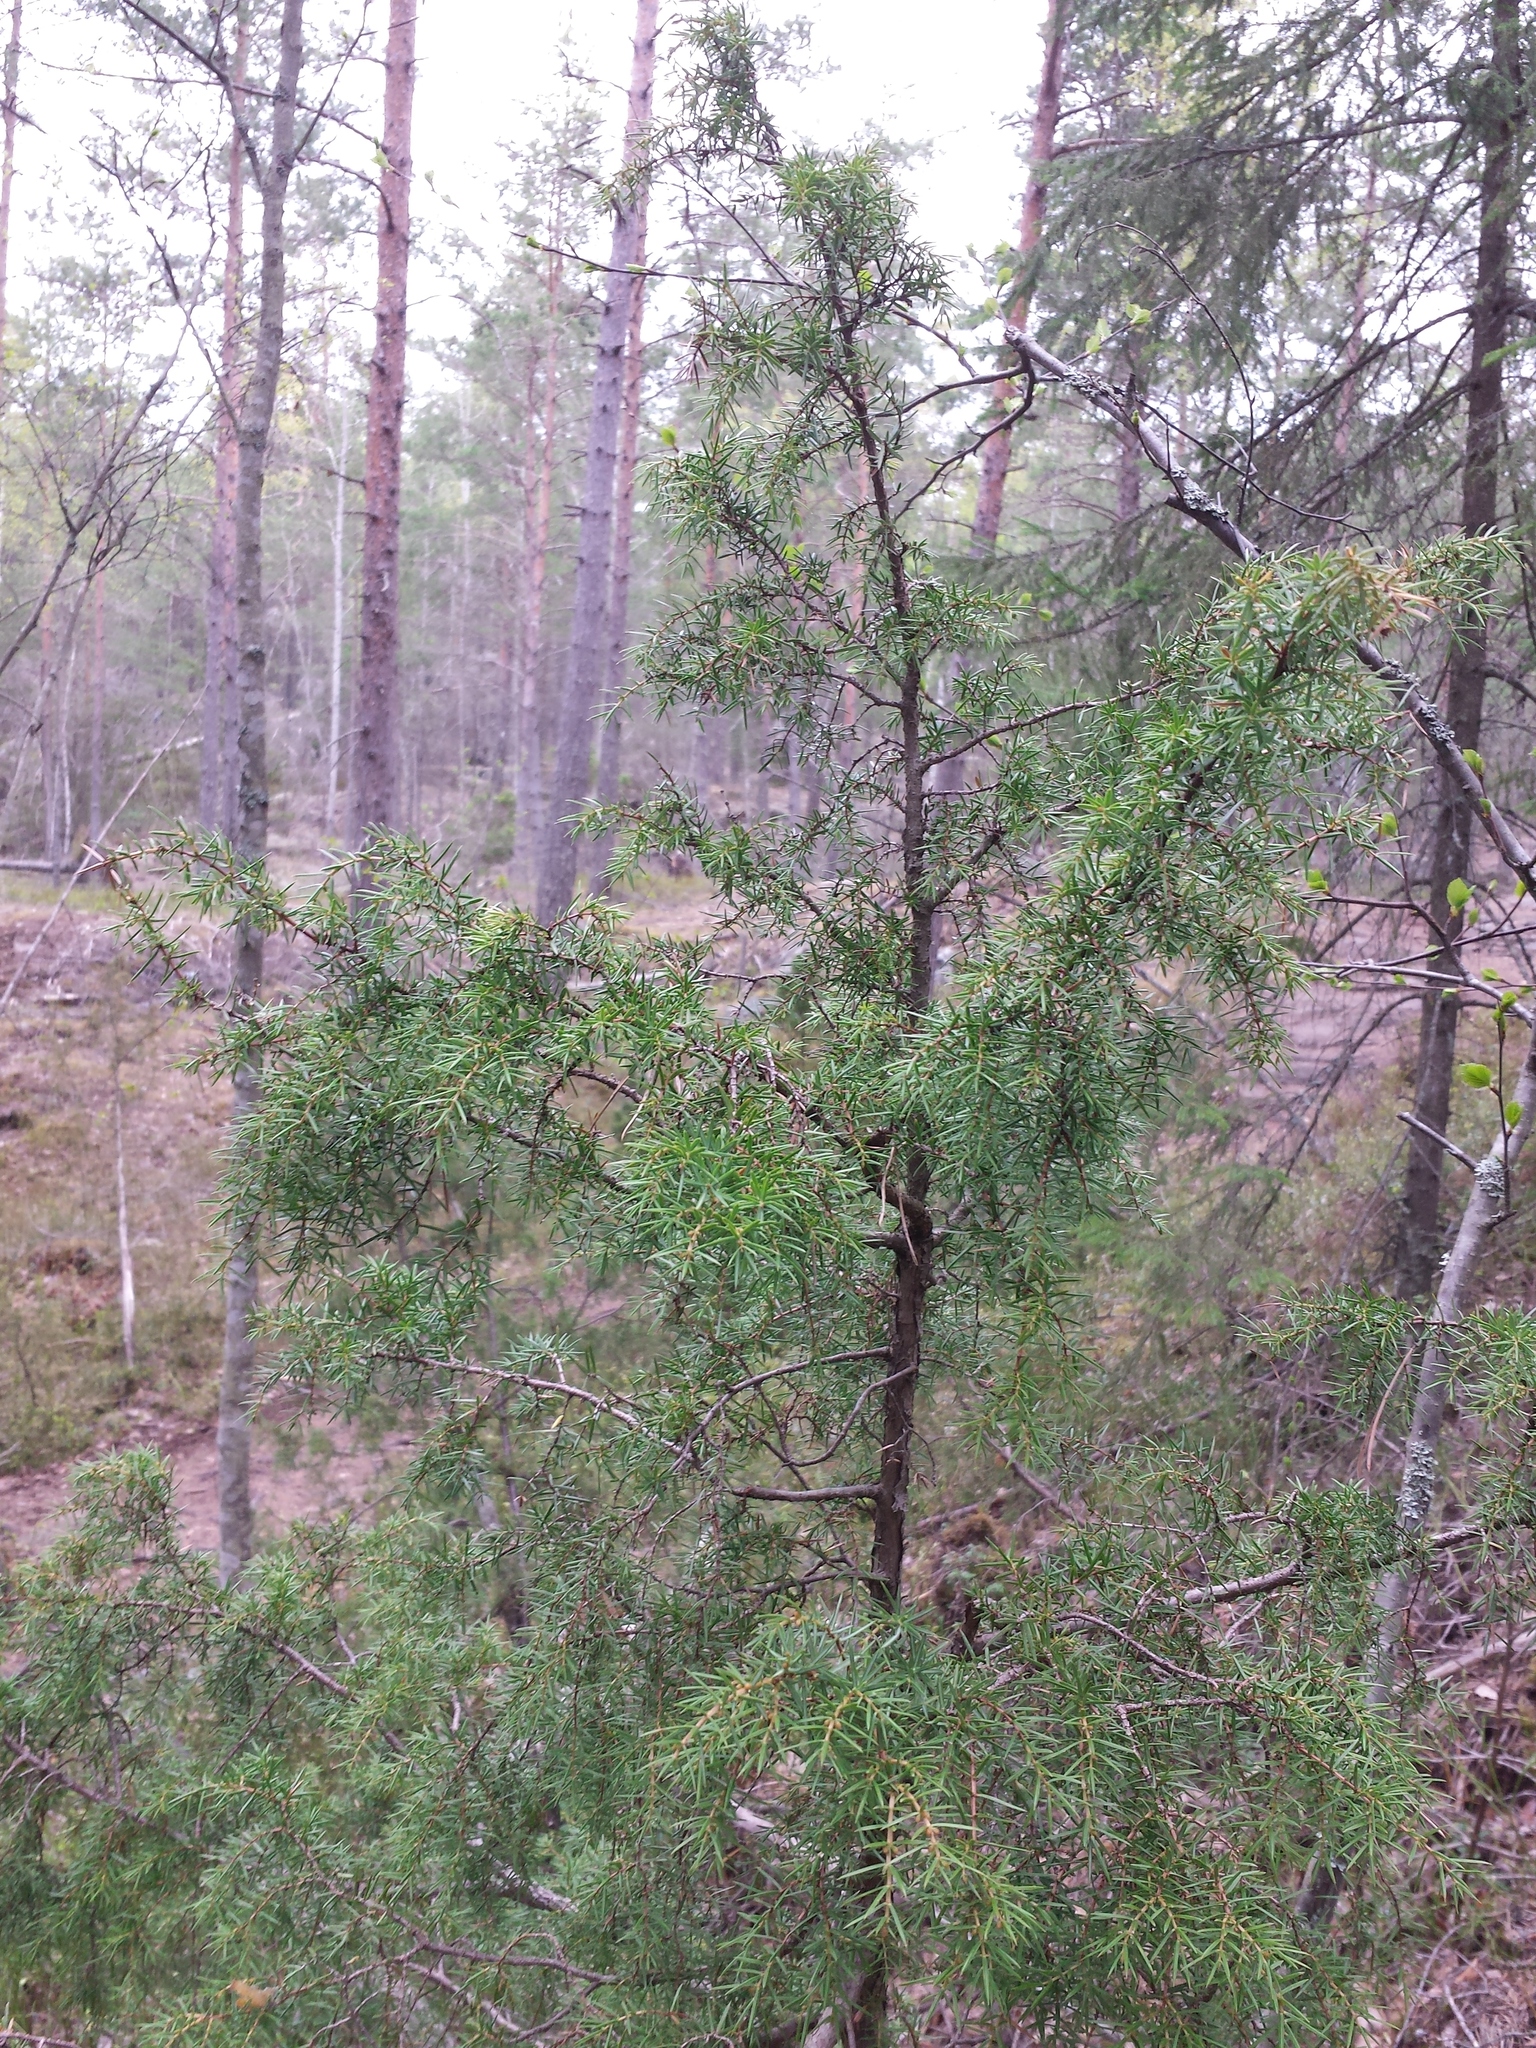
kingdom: Plantae
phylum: Tracheophyta
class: Pinopsida
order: Pinales
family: Cupressaceae
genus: Juniperus
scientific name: Juniperus communis
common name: Common juniper
